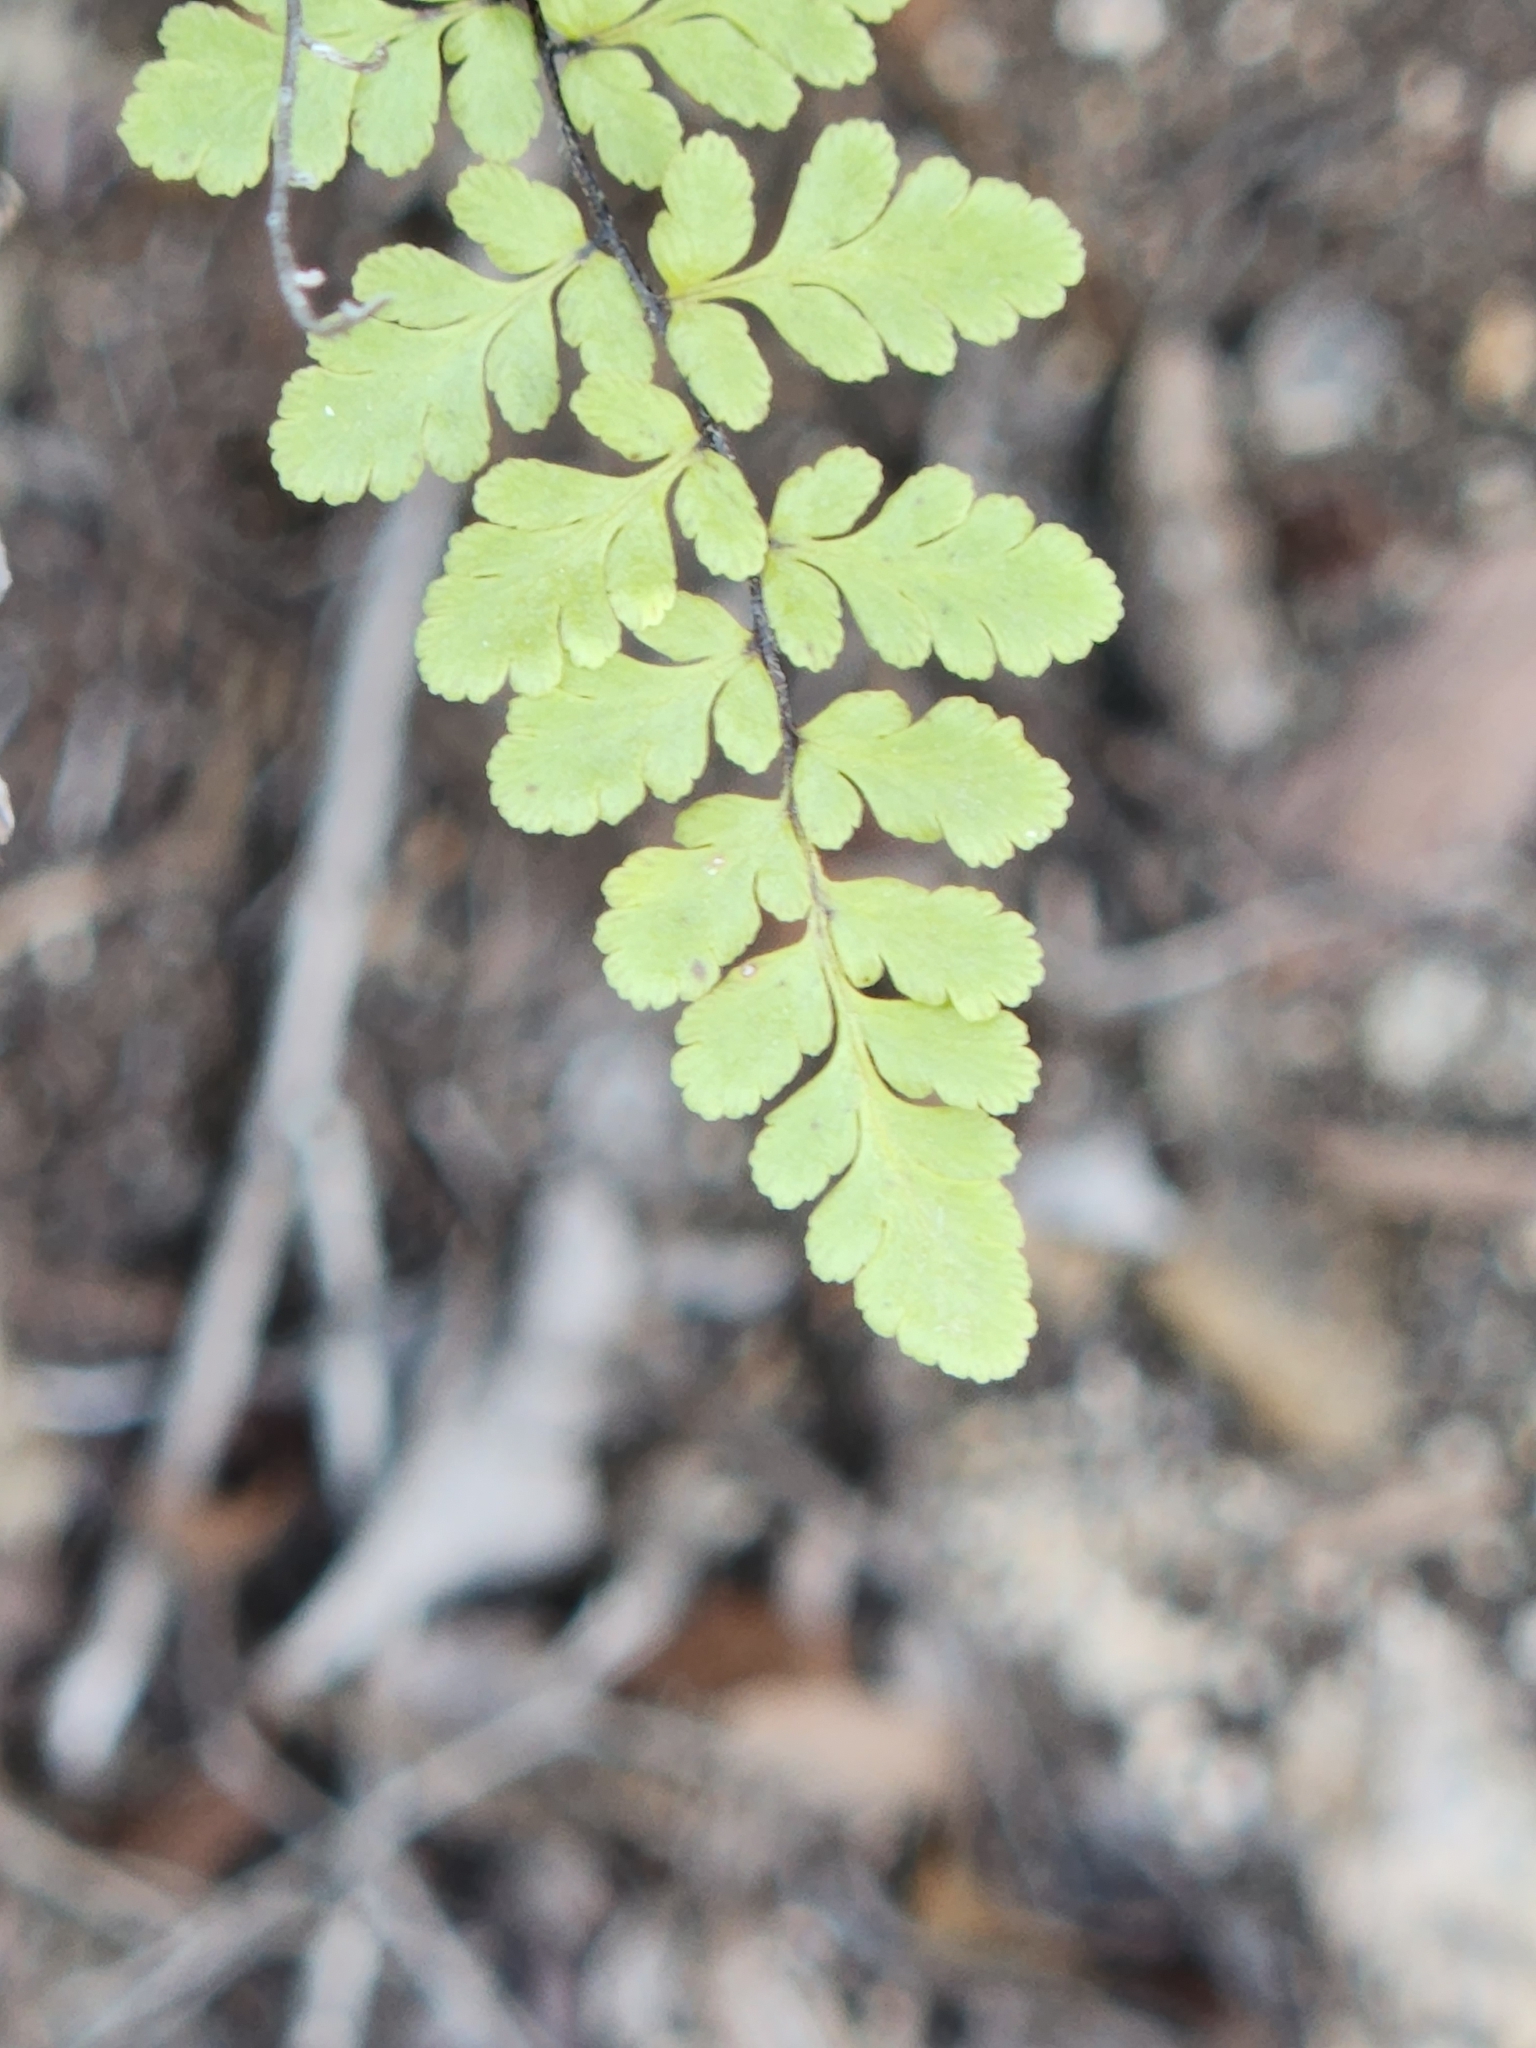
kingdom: Plantae
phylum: Tracheophyta
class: Polypodiopsida
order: Polypodiales
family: Pteridaceae
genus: Myriopteris
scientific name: Myriopteris alabamensis
